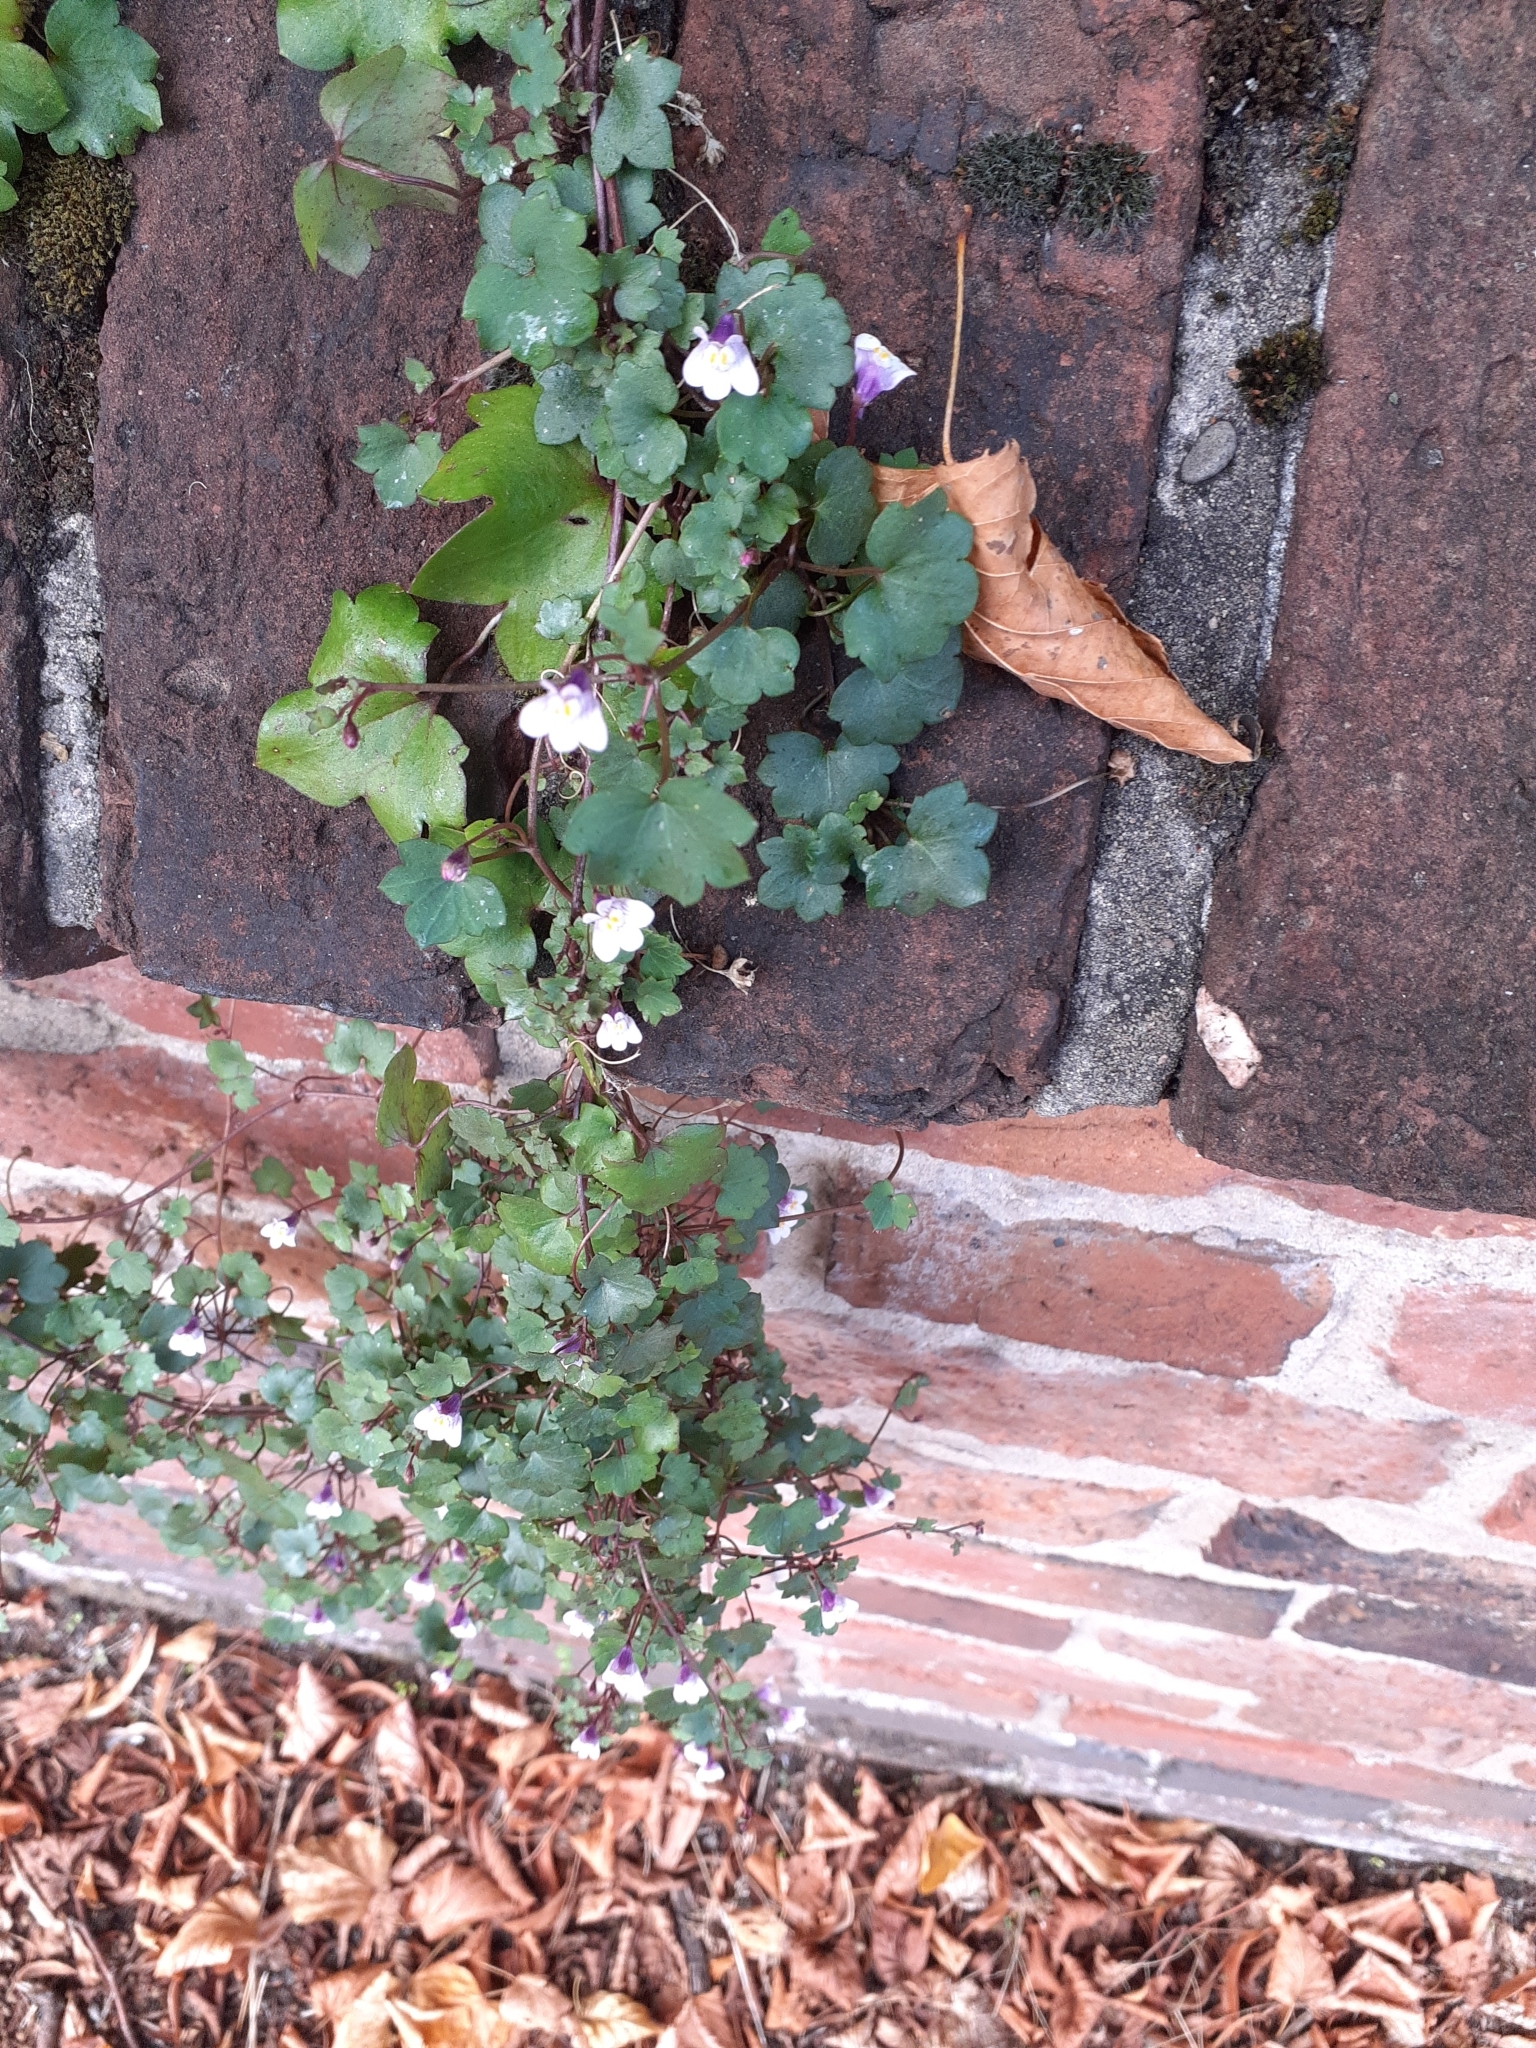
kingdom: Plantae
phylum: Tracheophyta
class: Magnoliopsida
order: Lamiales
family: Plantaginaceae
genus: Cymbalaria
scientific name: Cymbalaria muralis
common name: Ivy-leaved toadflax
